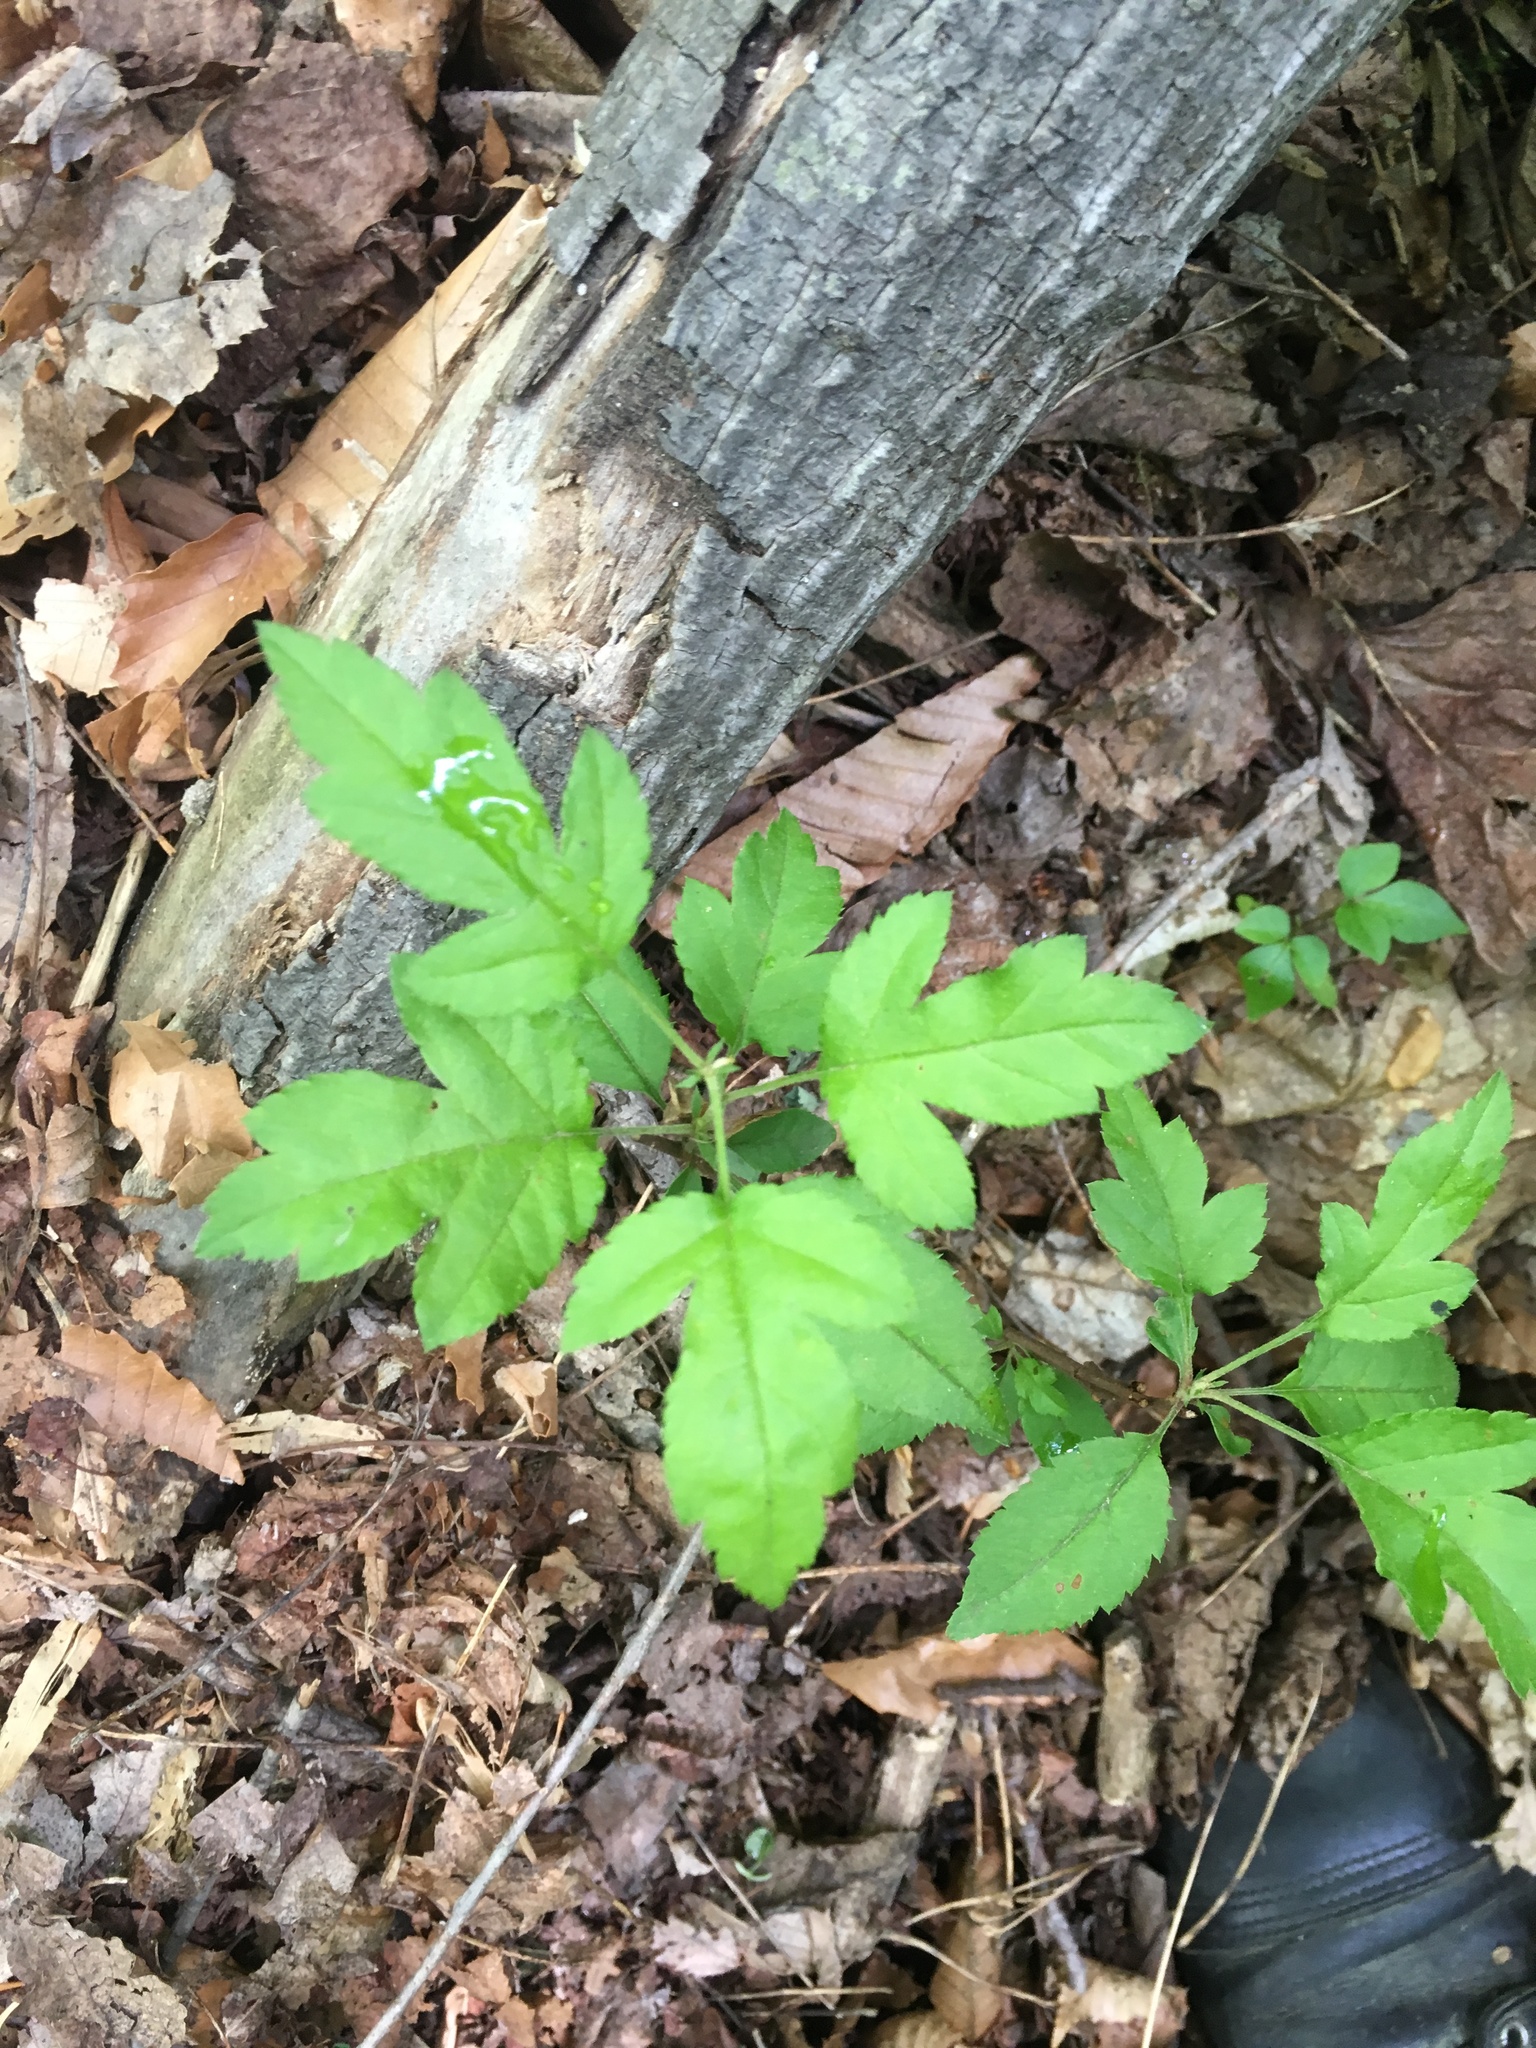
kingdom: Plantae
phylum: Tracheophyta
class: Magnoliopsida
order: Rosales
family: Rosaceae
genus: Malus
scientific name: Malus toringo
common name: Japanese crabapple
